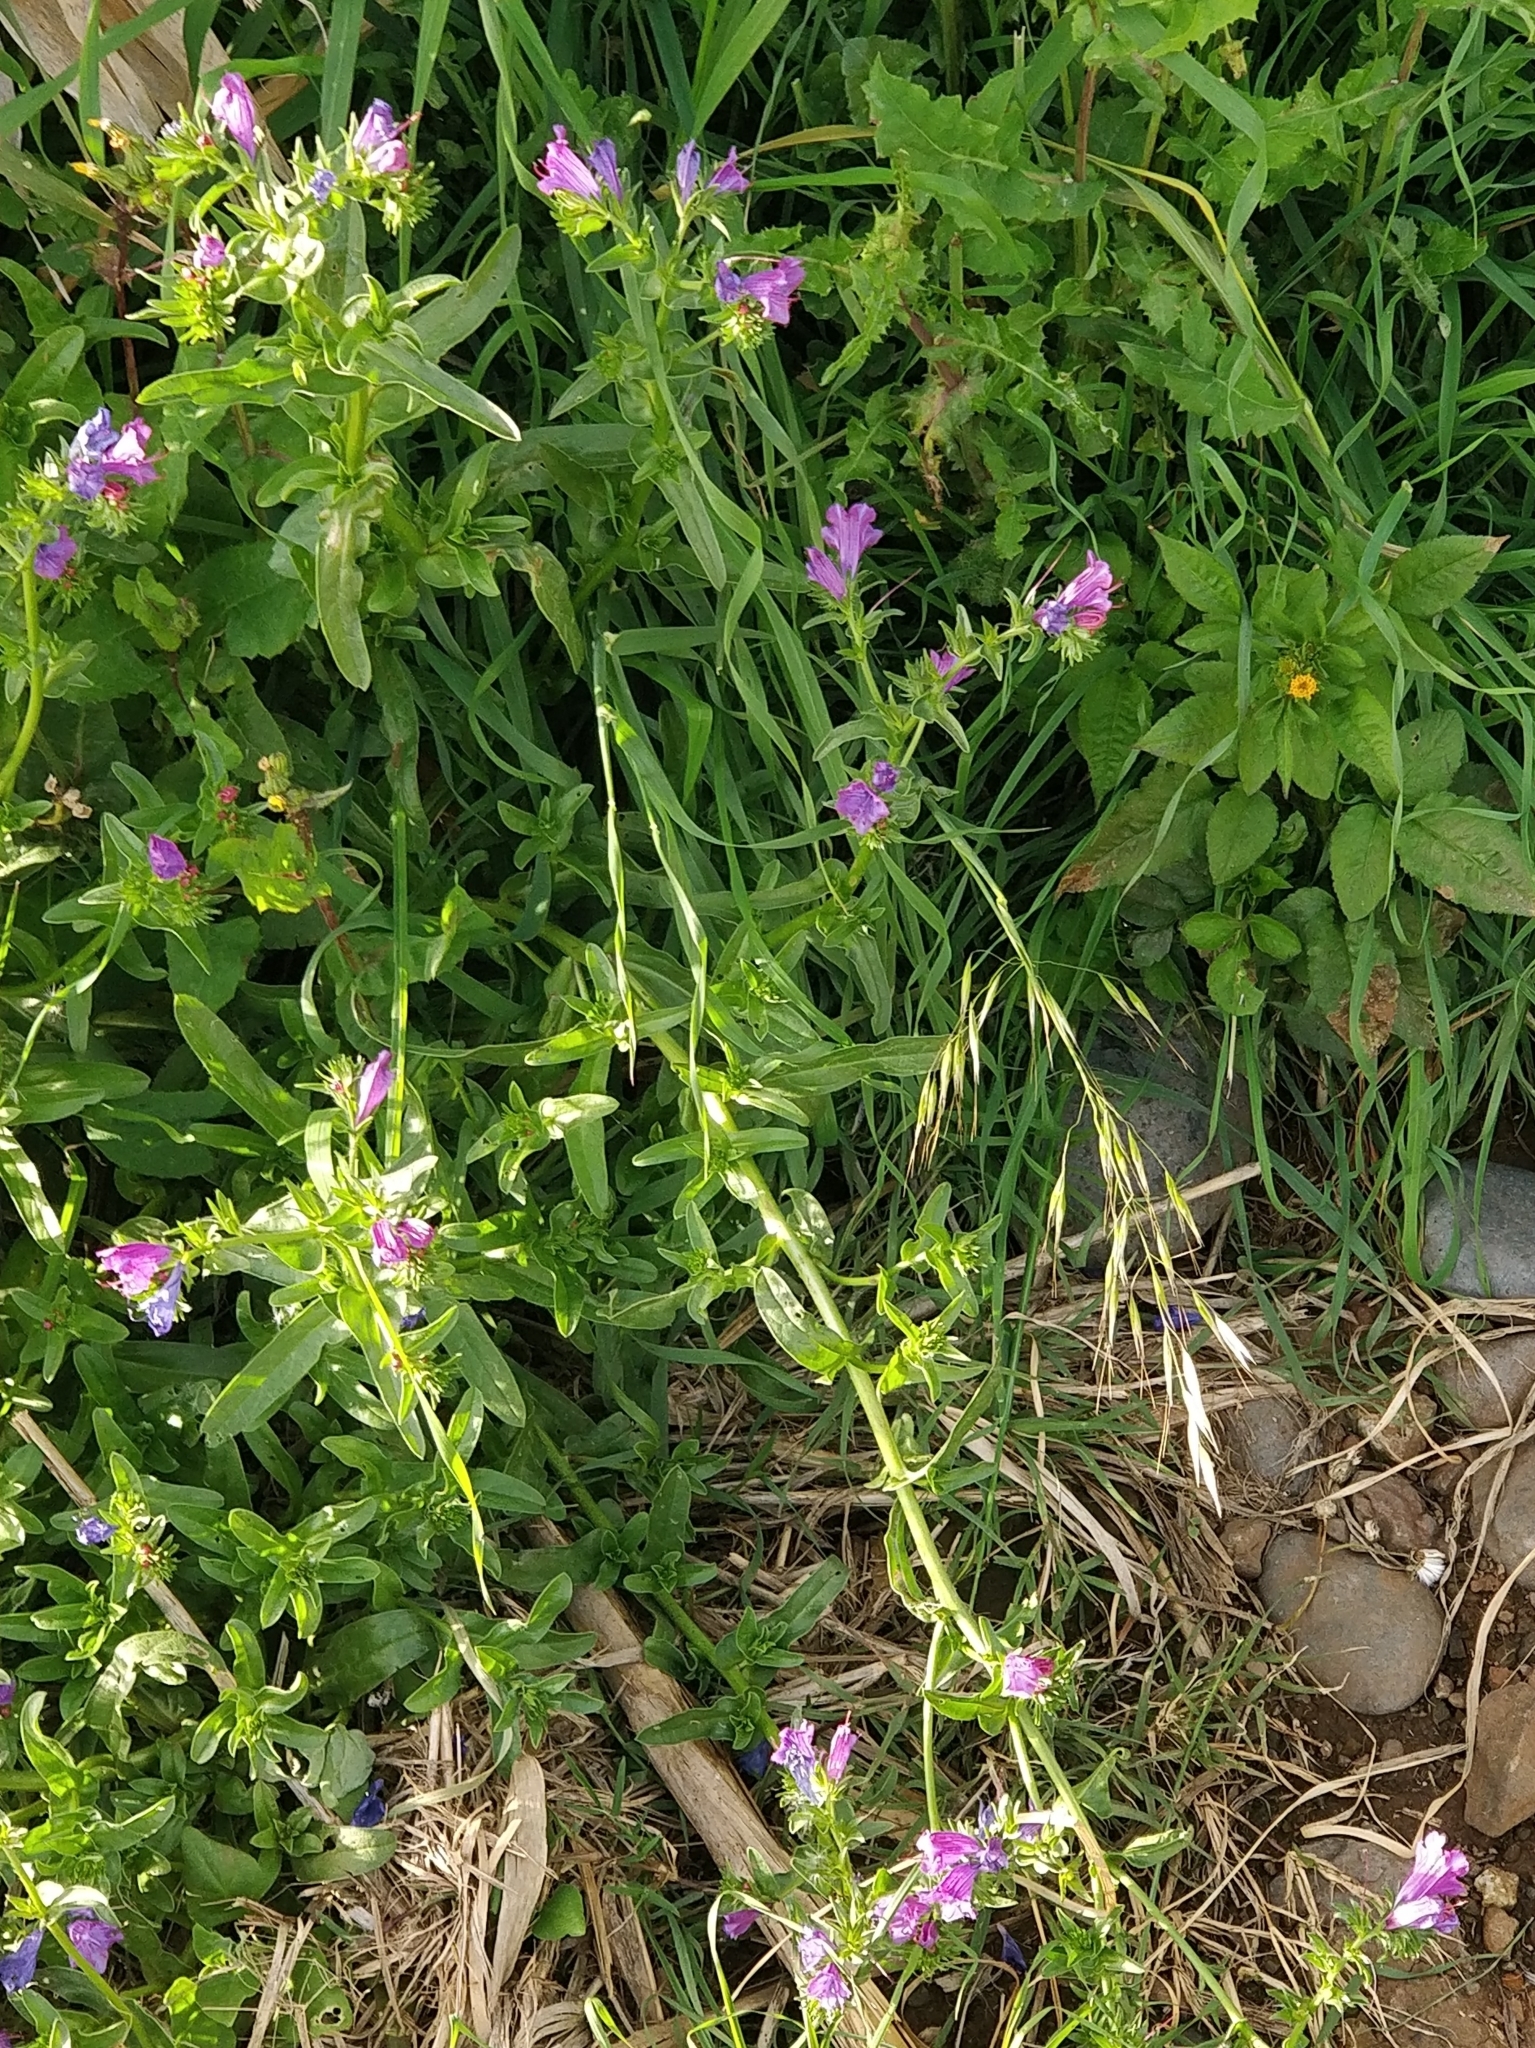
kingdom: Plantae
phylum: Tracheophyta
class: Magnoliopsida
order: Boraginales
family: Boraginaceae
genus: Echium
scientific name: Echium plantagineum
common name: Purple viper's-bugloss
